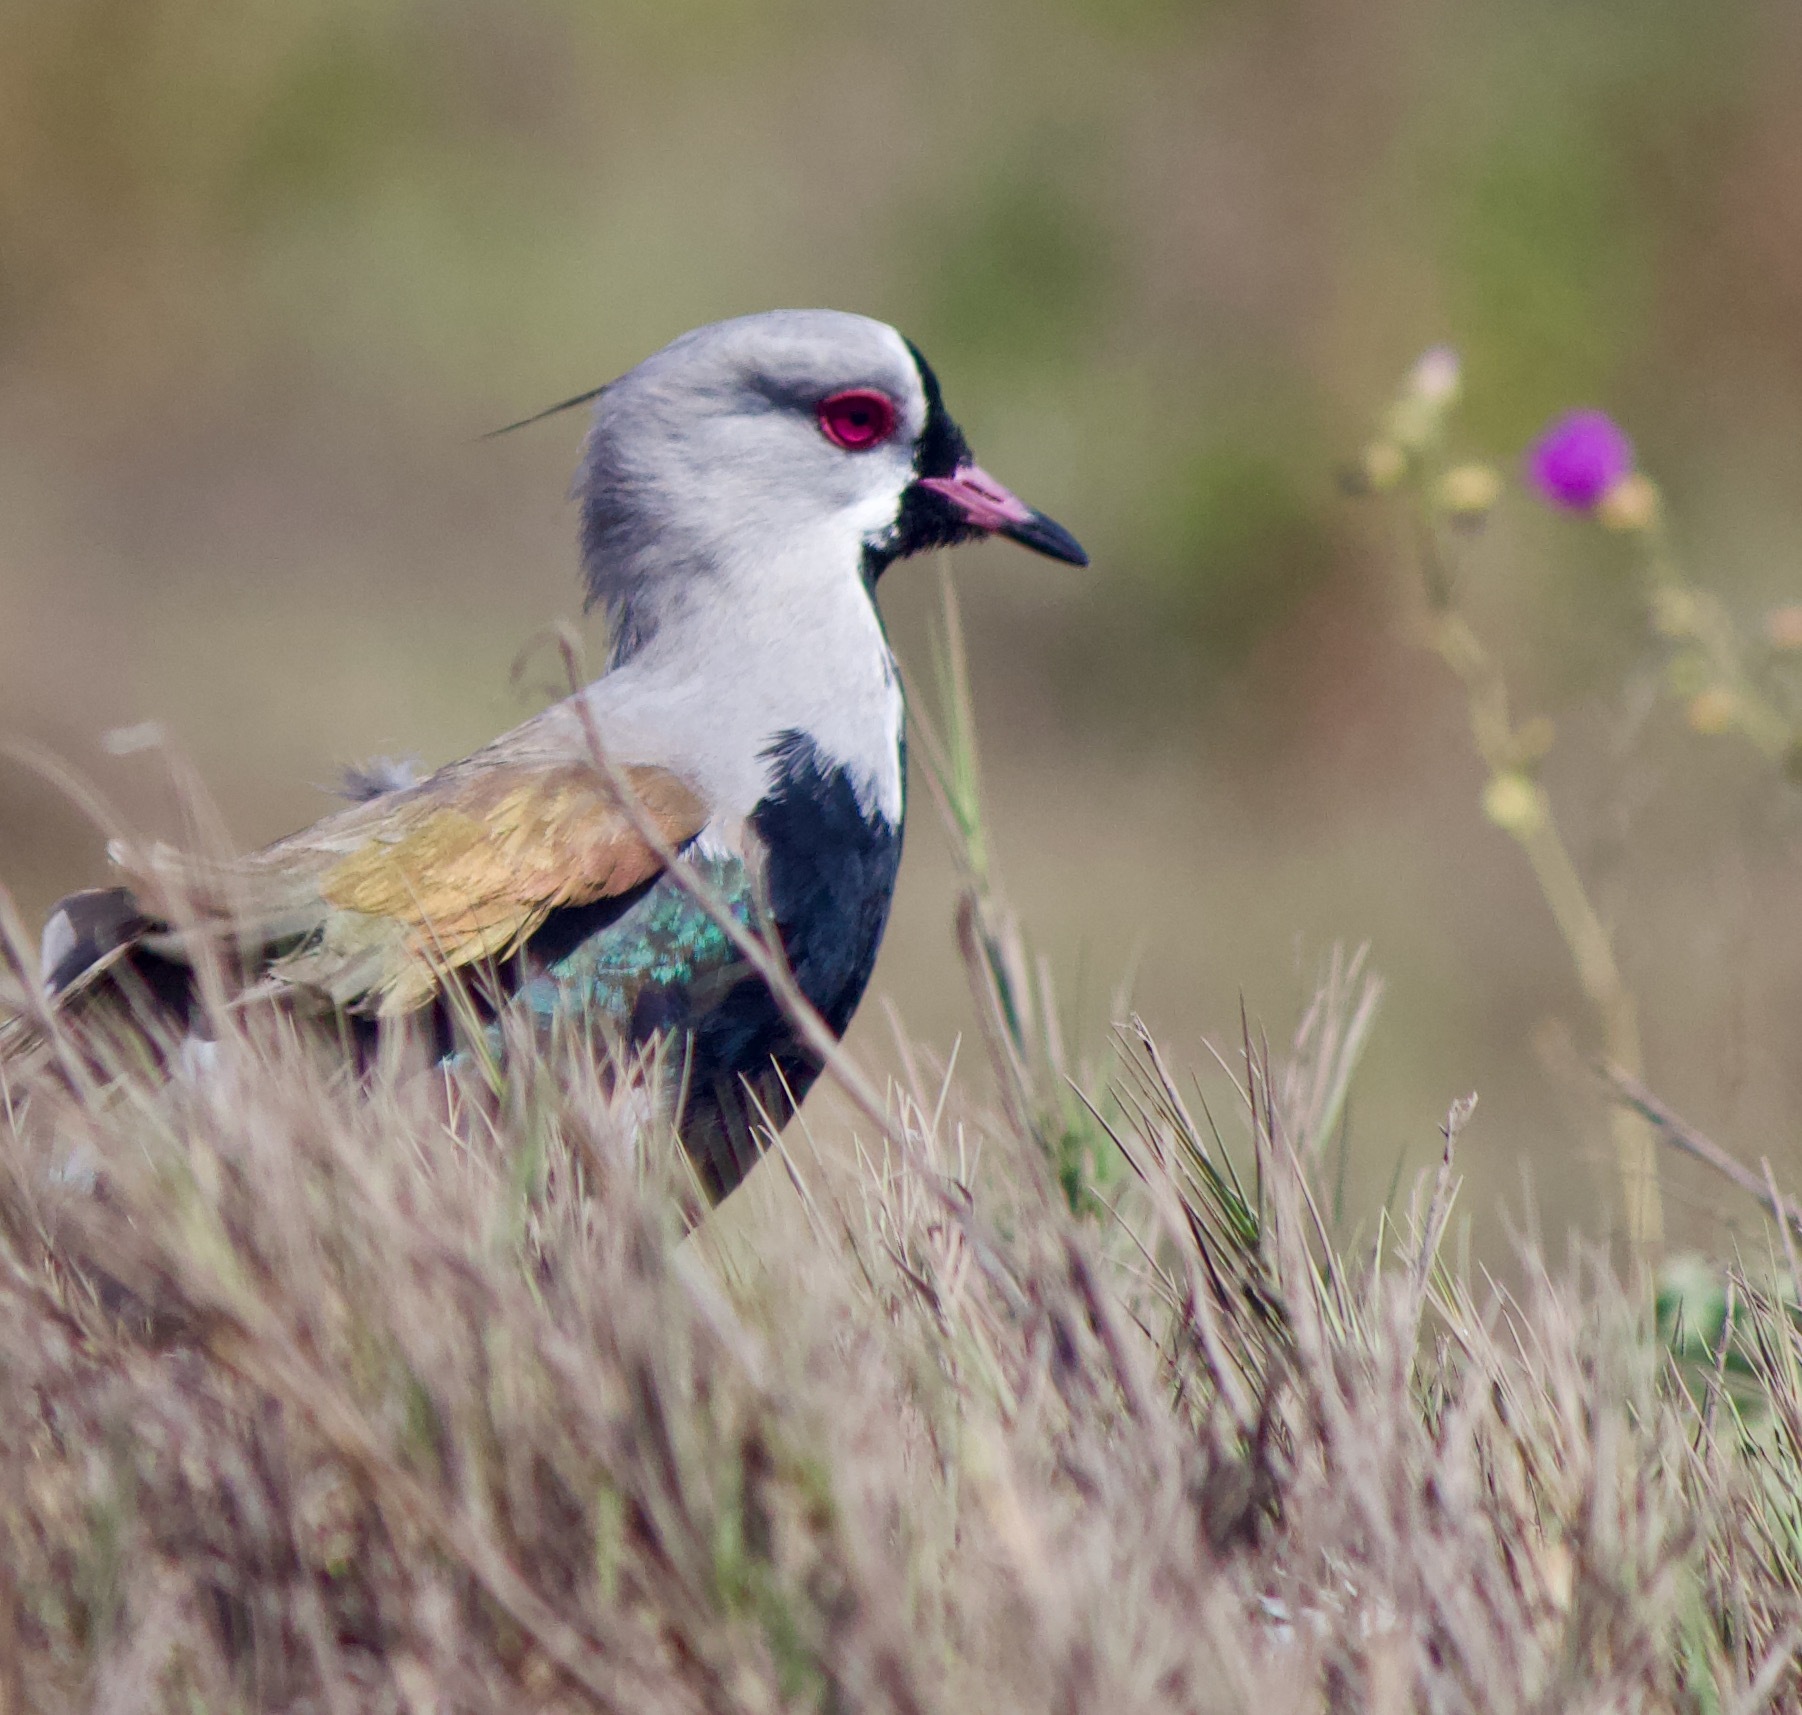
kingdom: Animalia
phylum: Chordata
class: Aves
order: Charadriiformes
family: Charadriidae
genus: Vanellus
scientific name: Vanellus chilensis
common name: Southern lapwing
